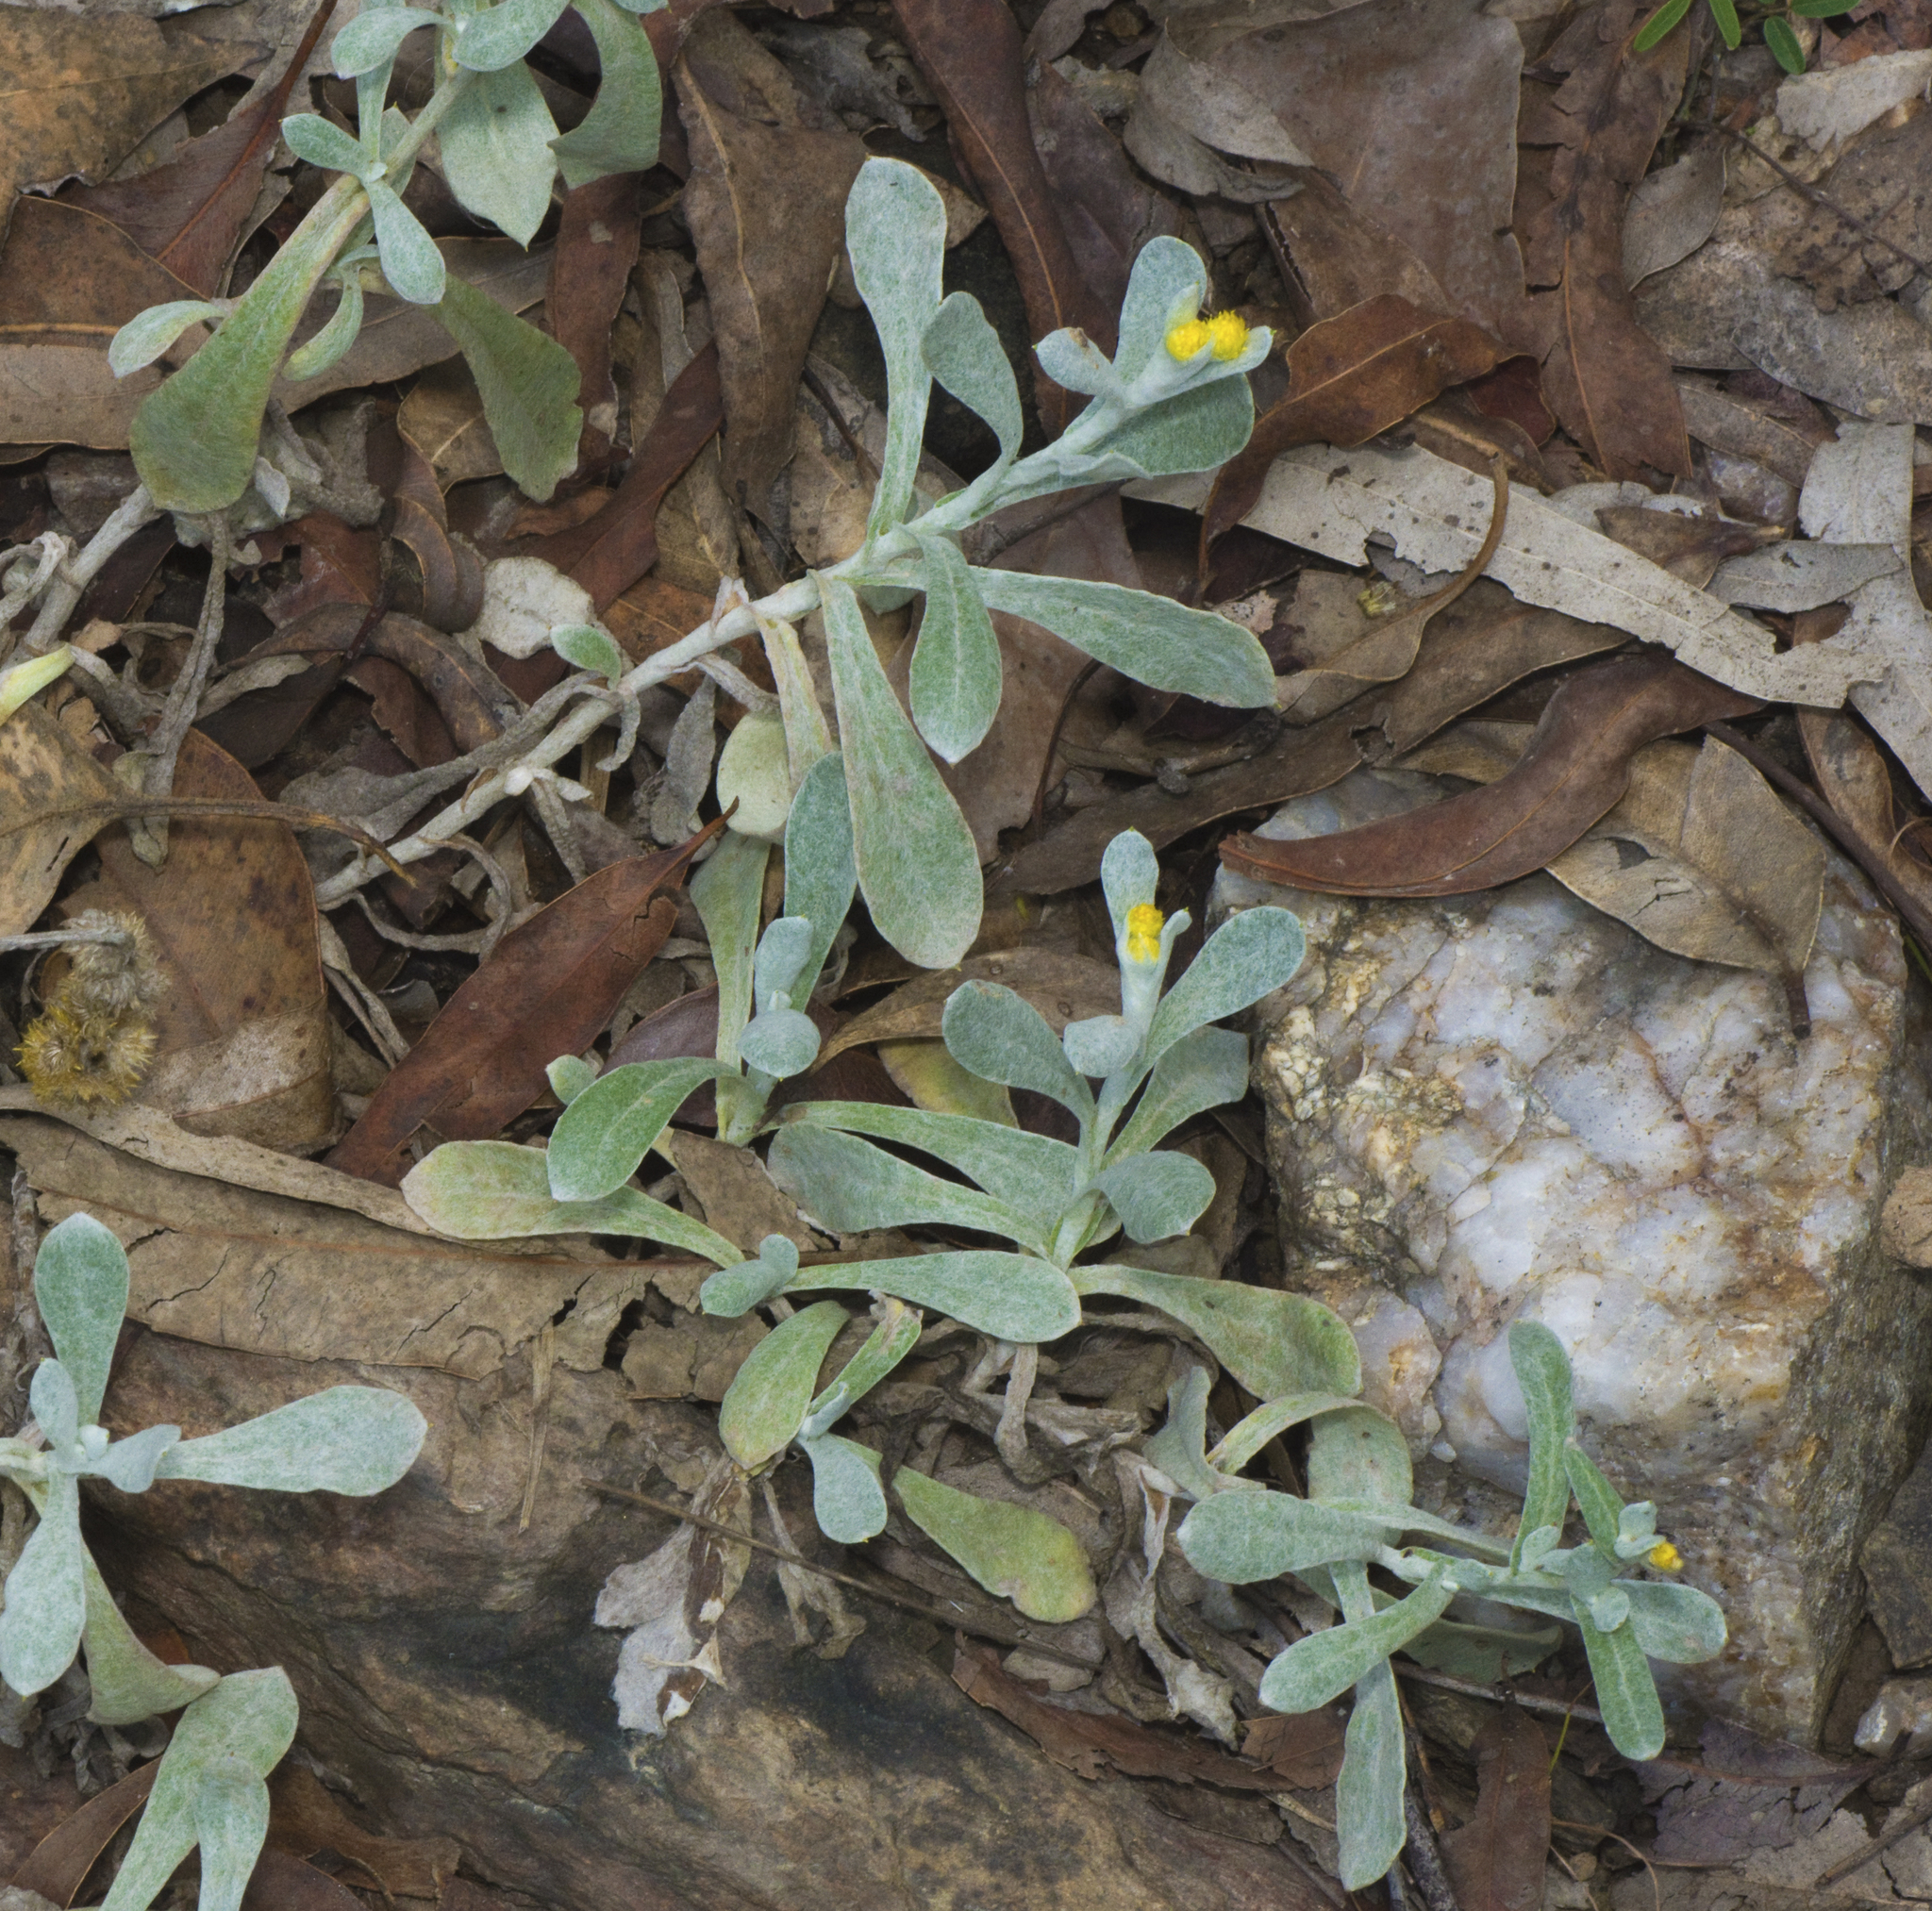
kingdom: Plantae
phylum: Tracheophyta
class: Magnoliopsida
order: Asterales
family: Asteraceae
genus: Chrysocephalum
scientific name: Chrysocephalum apiculatum
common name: Common everlasting
